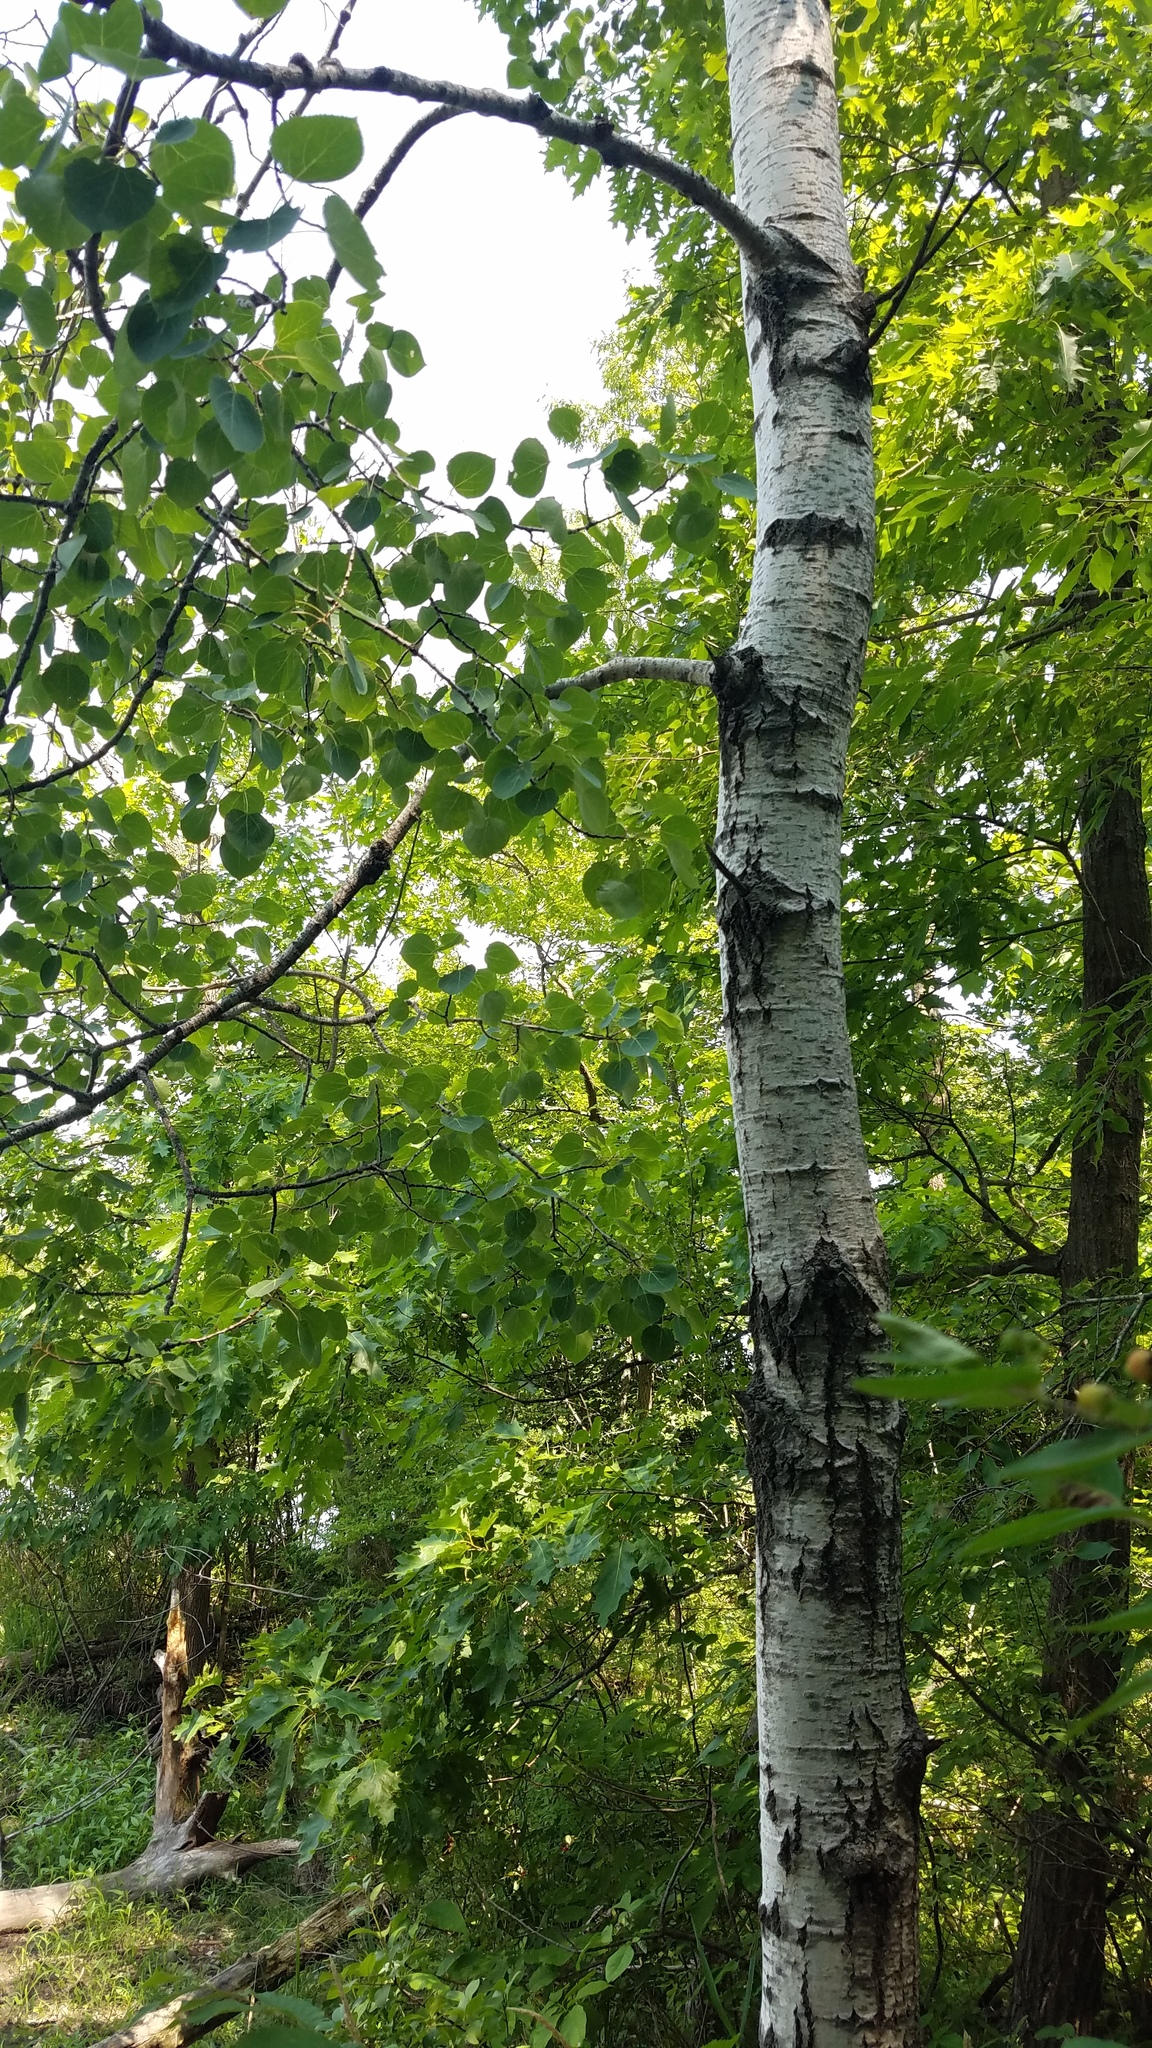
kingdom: Plantae
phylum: Tracheophyta
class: Magnoliopsida
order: Malpighiales
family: Salicaceae
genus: Populus
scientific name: Populus tremuloides
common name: Quaking aspen
